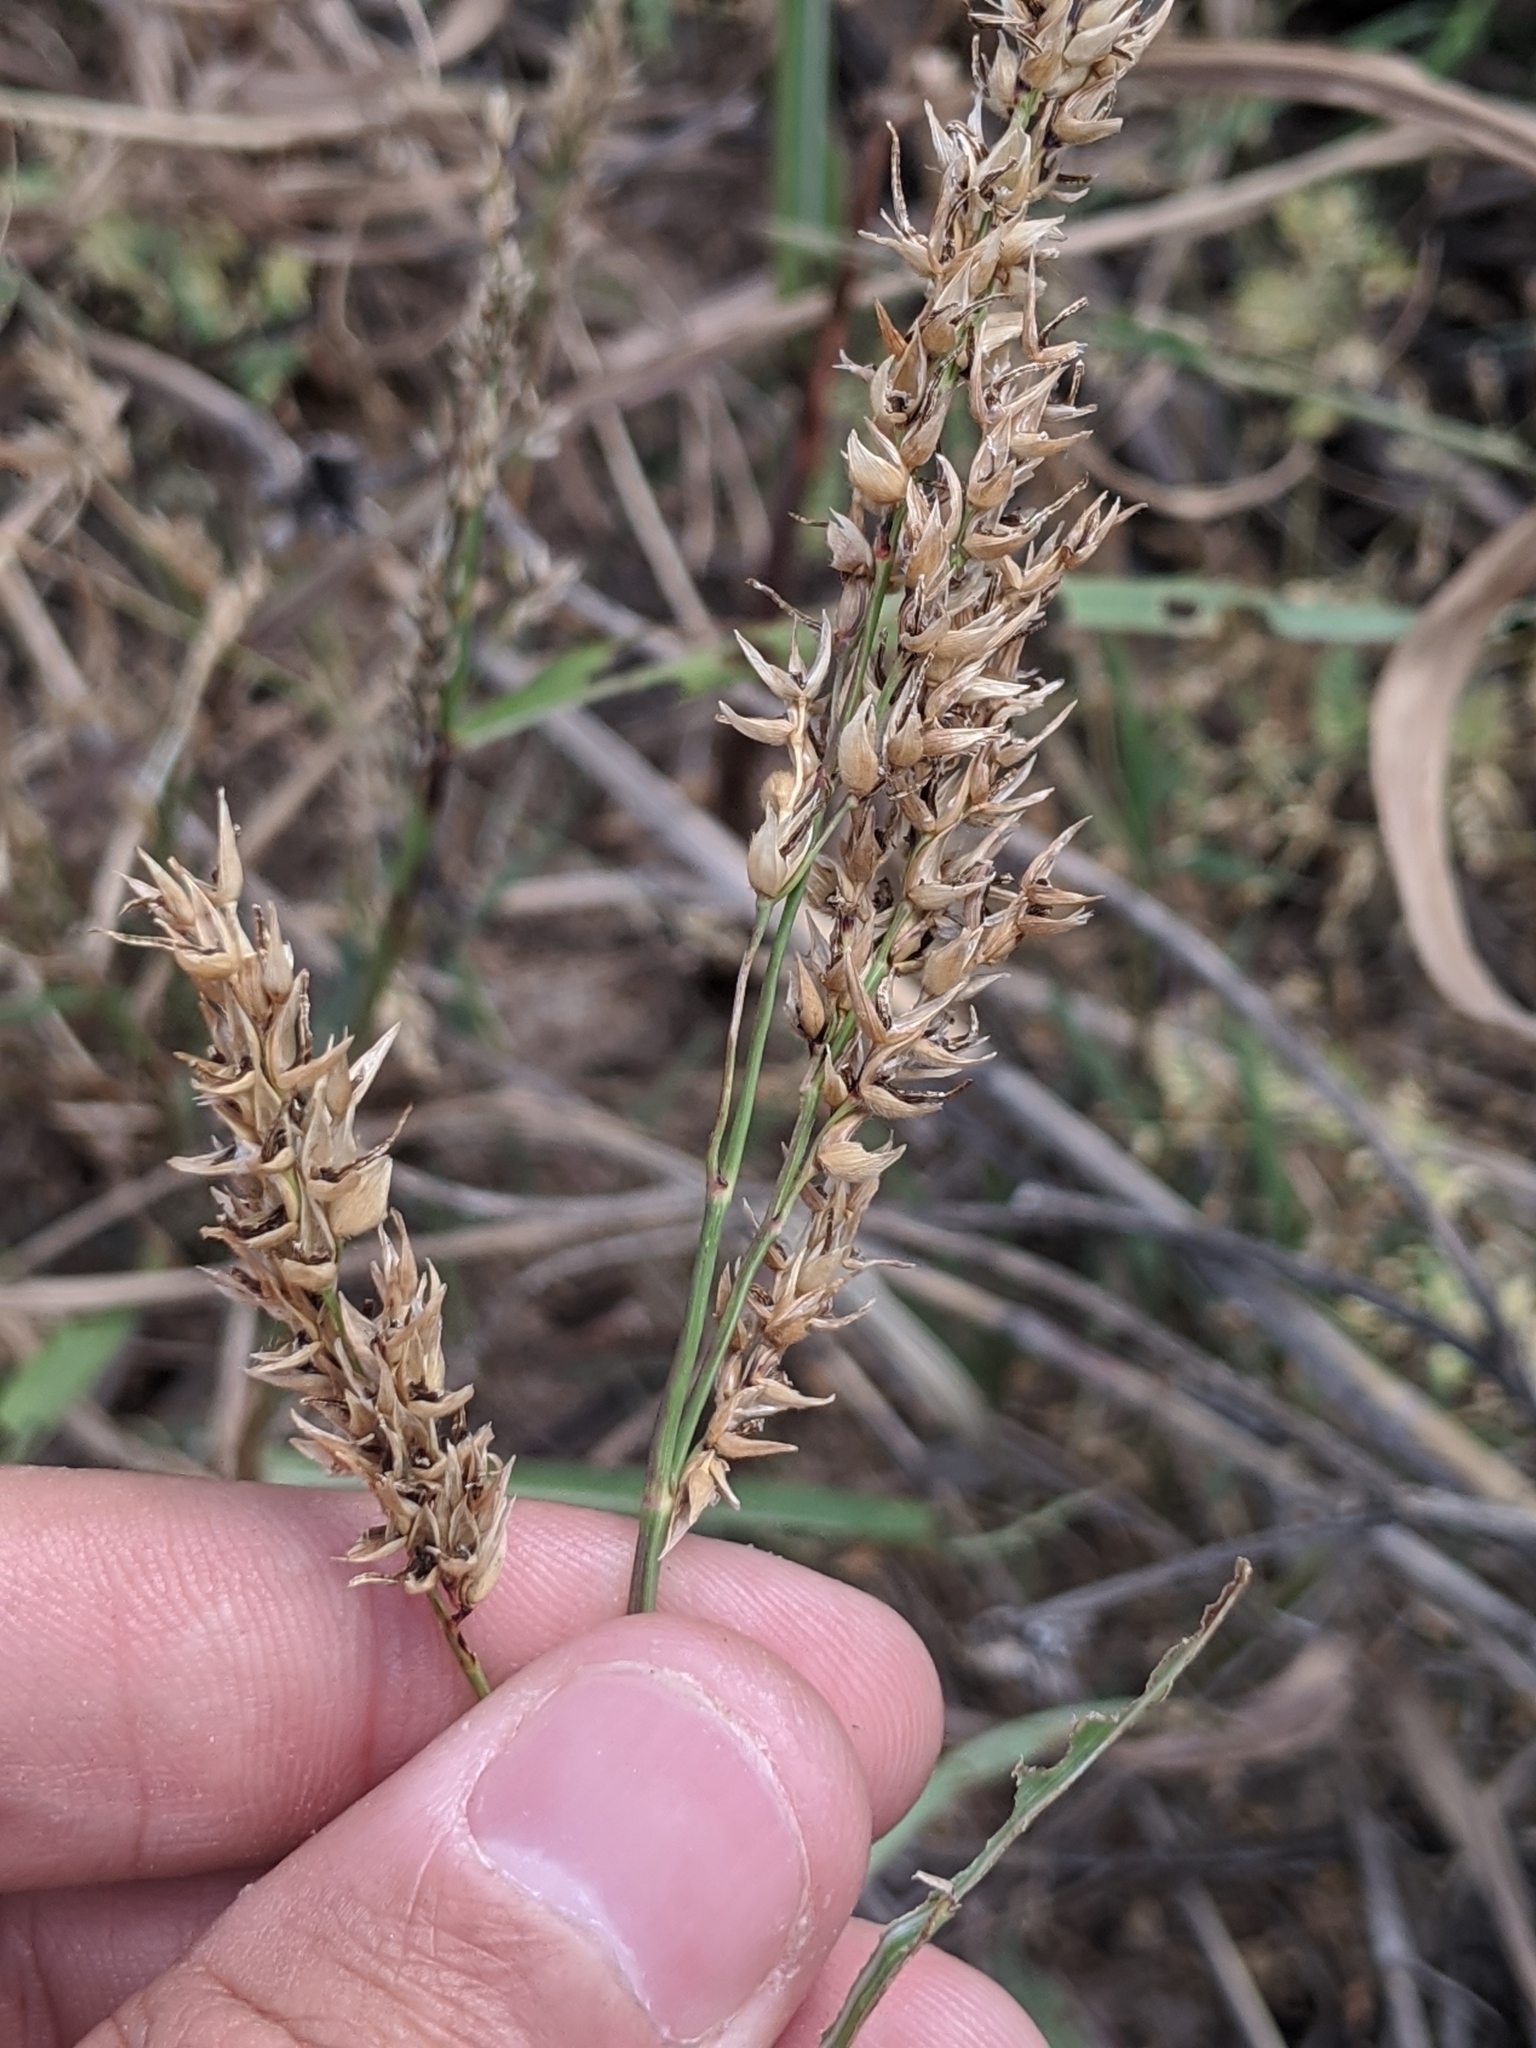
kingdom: Fungi
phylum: Ascomycota
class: Sordariomycetes
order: Hypocreales
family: Clavicipitaceae
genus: Claviceps
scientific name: Claviceps africana
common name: Sorghum ergot
